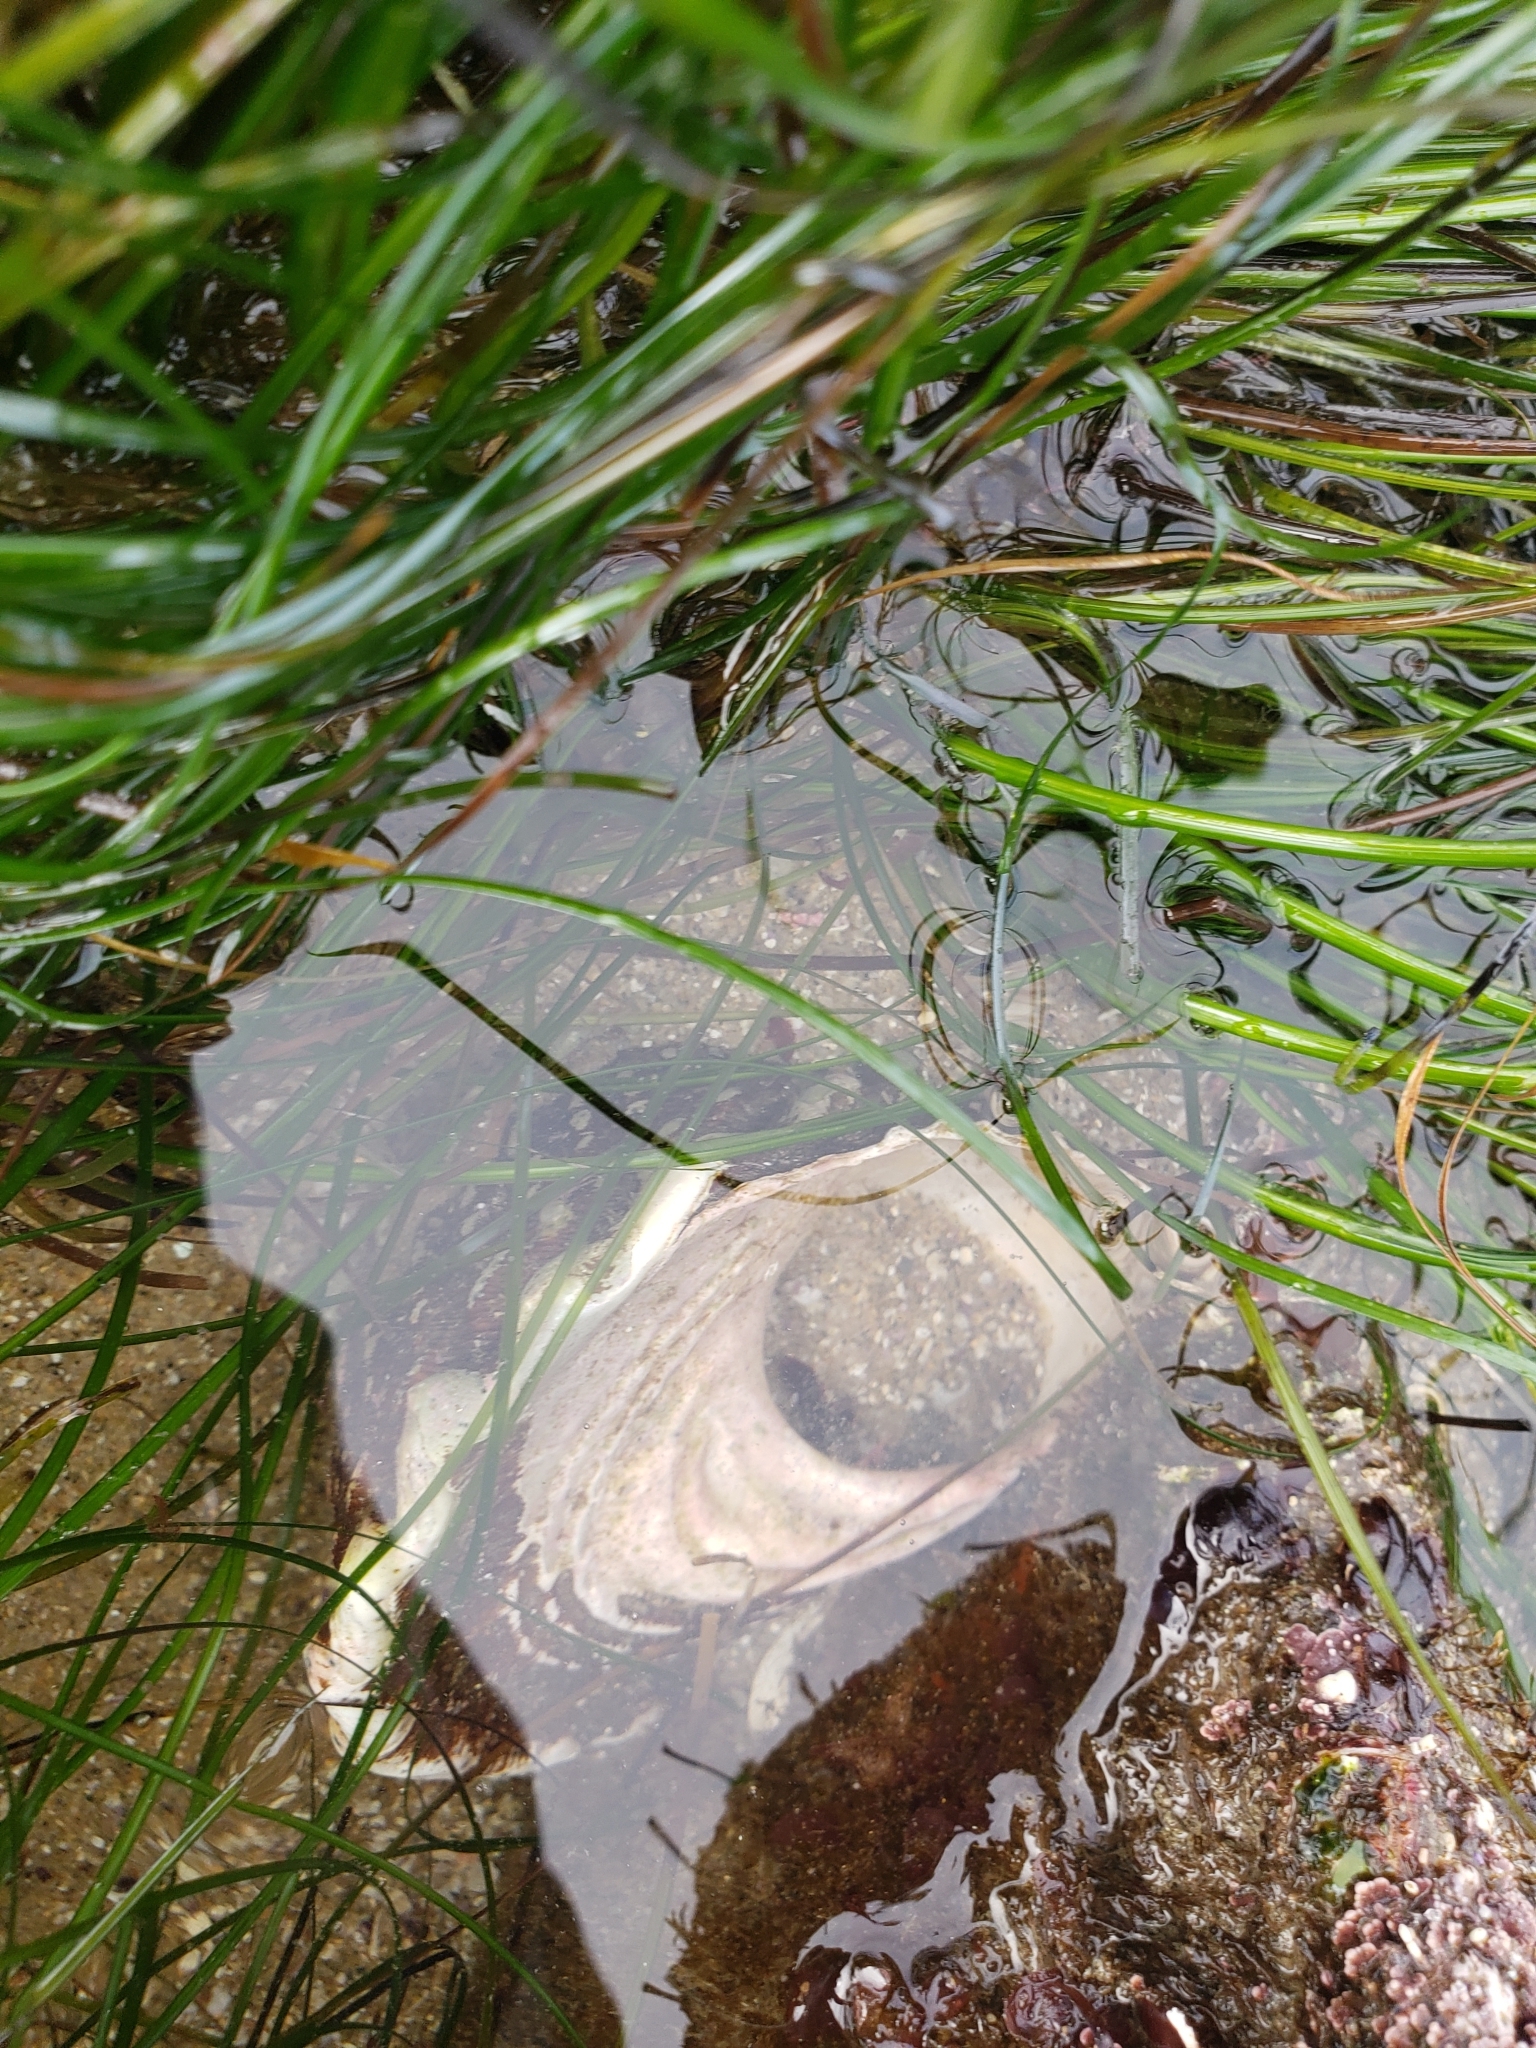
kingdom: Animalia
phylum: Mollusca
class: Gastropoda
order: Trochida
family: Turbinidae
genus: Megastraea
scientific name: Megastraea undosa
